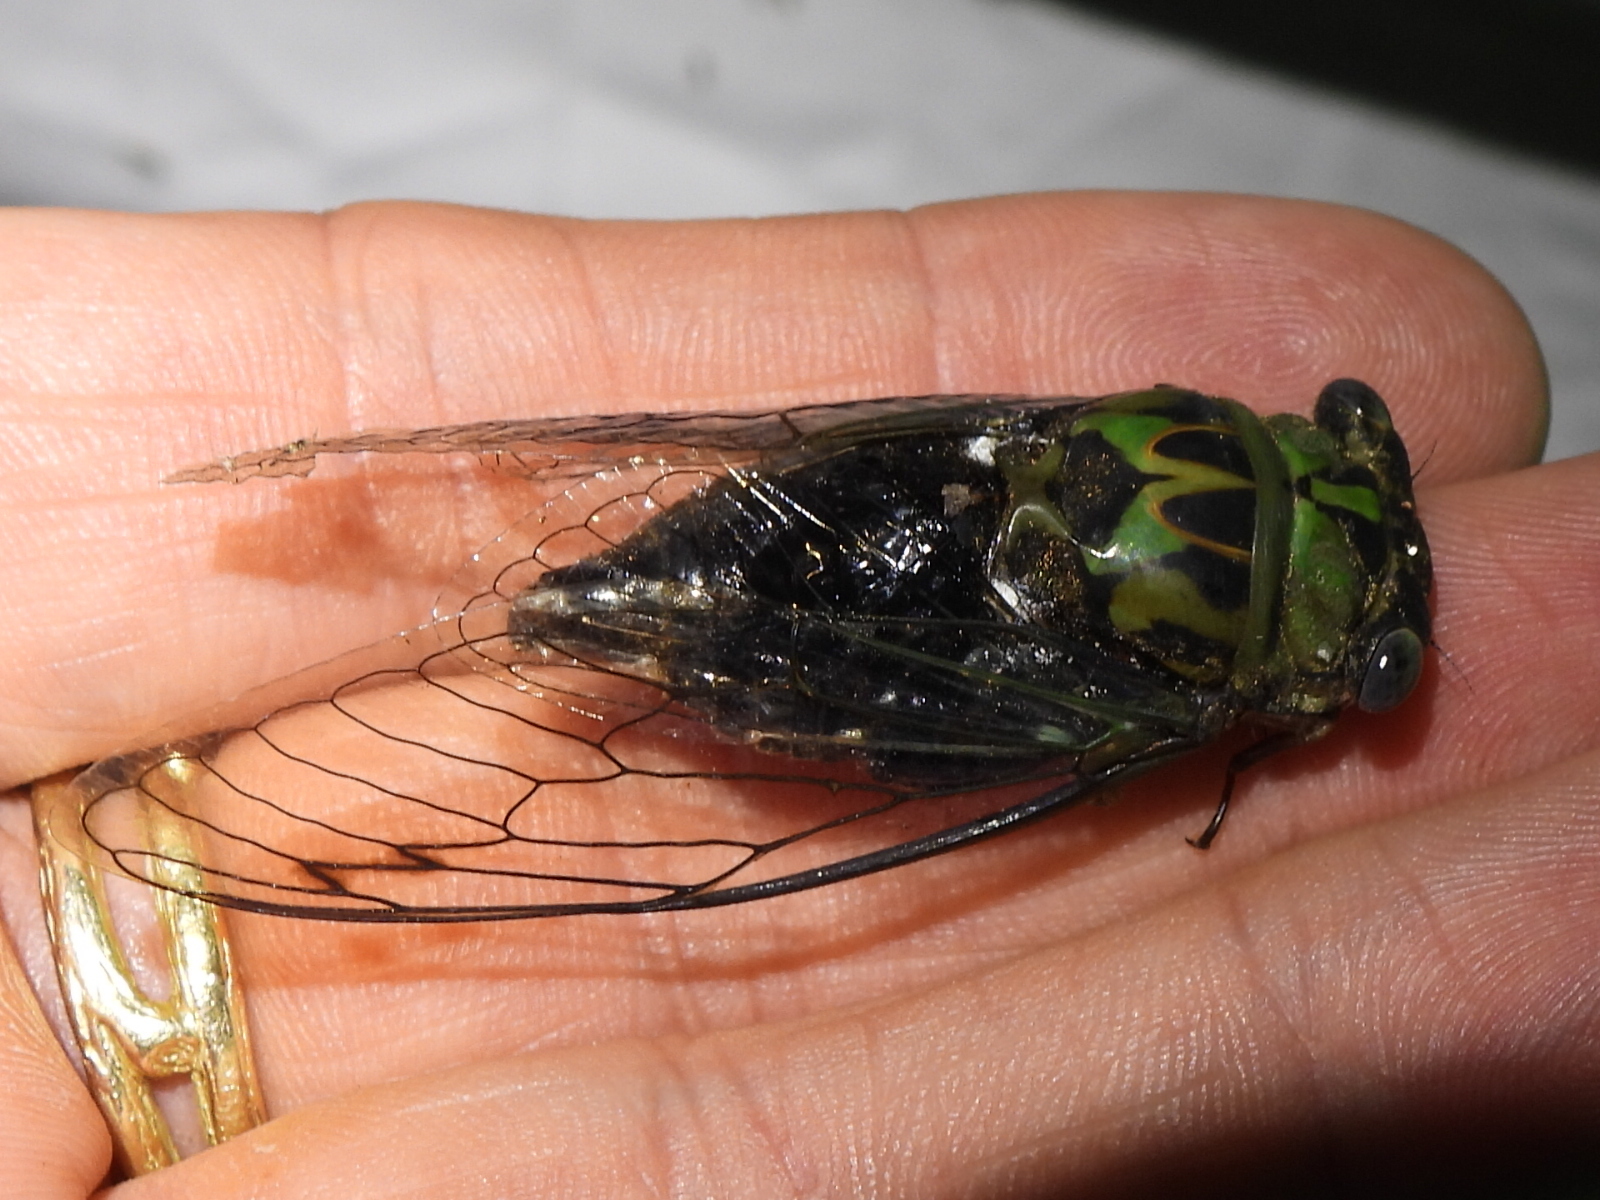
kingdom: Animalia
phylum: Arthropoda
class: Insecta
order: Hemiptera
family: Cicadidae
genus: Neotibicen
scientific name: Neotibicen pruinosus
